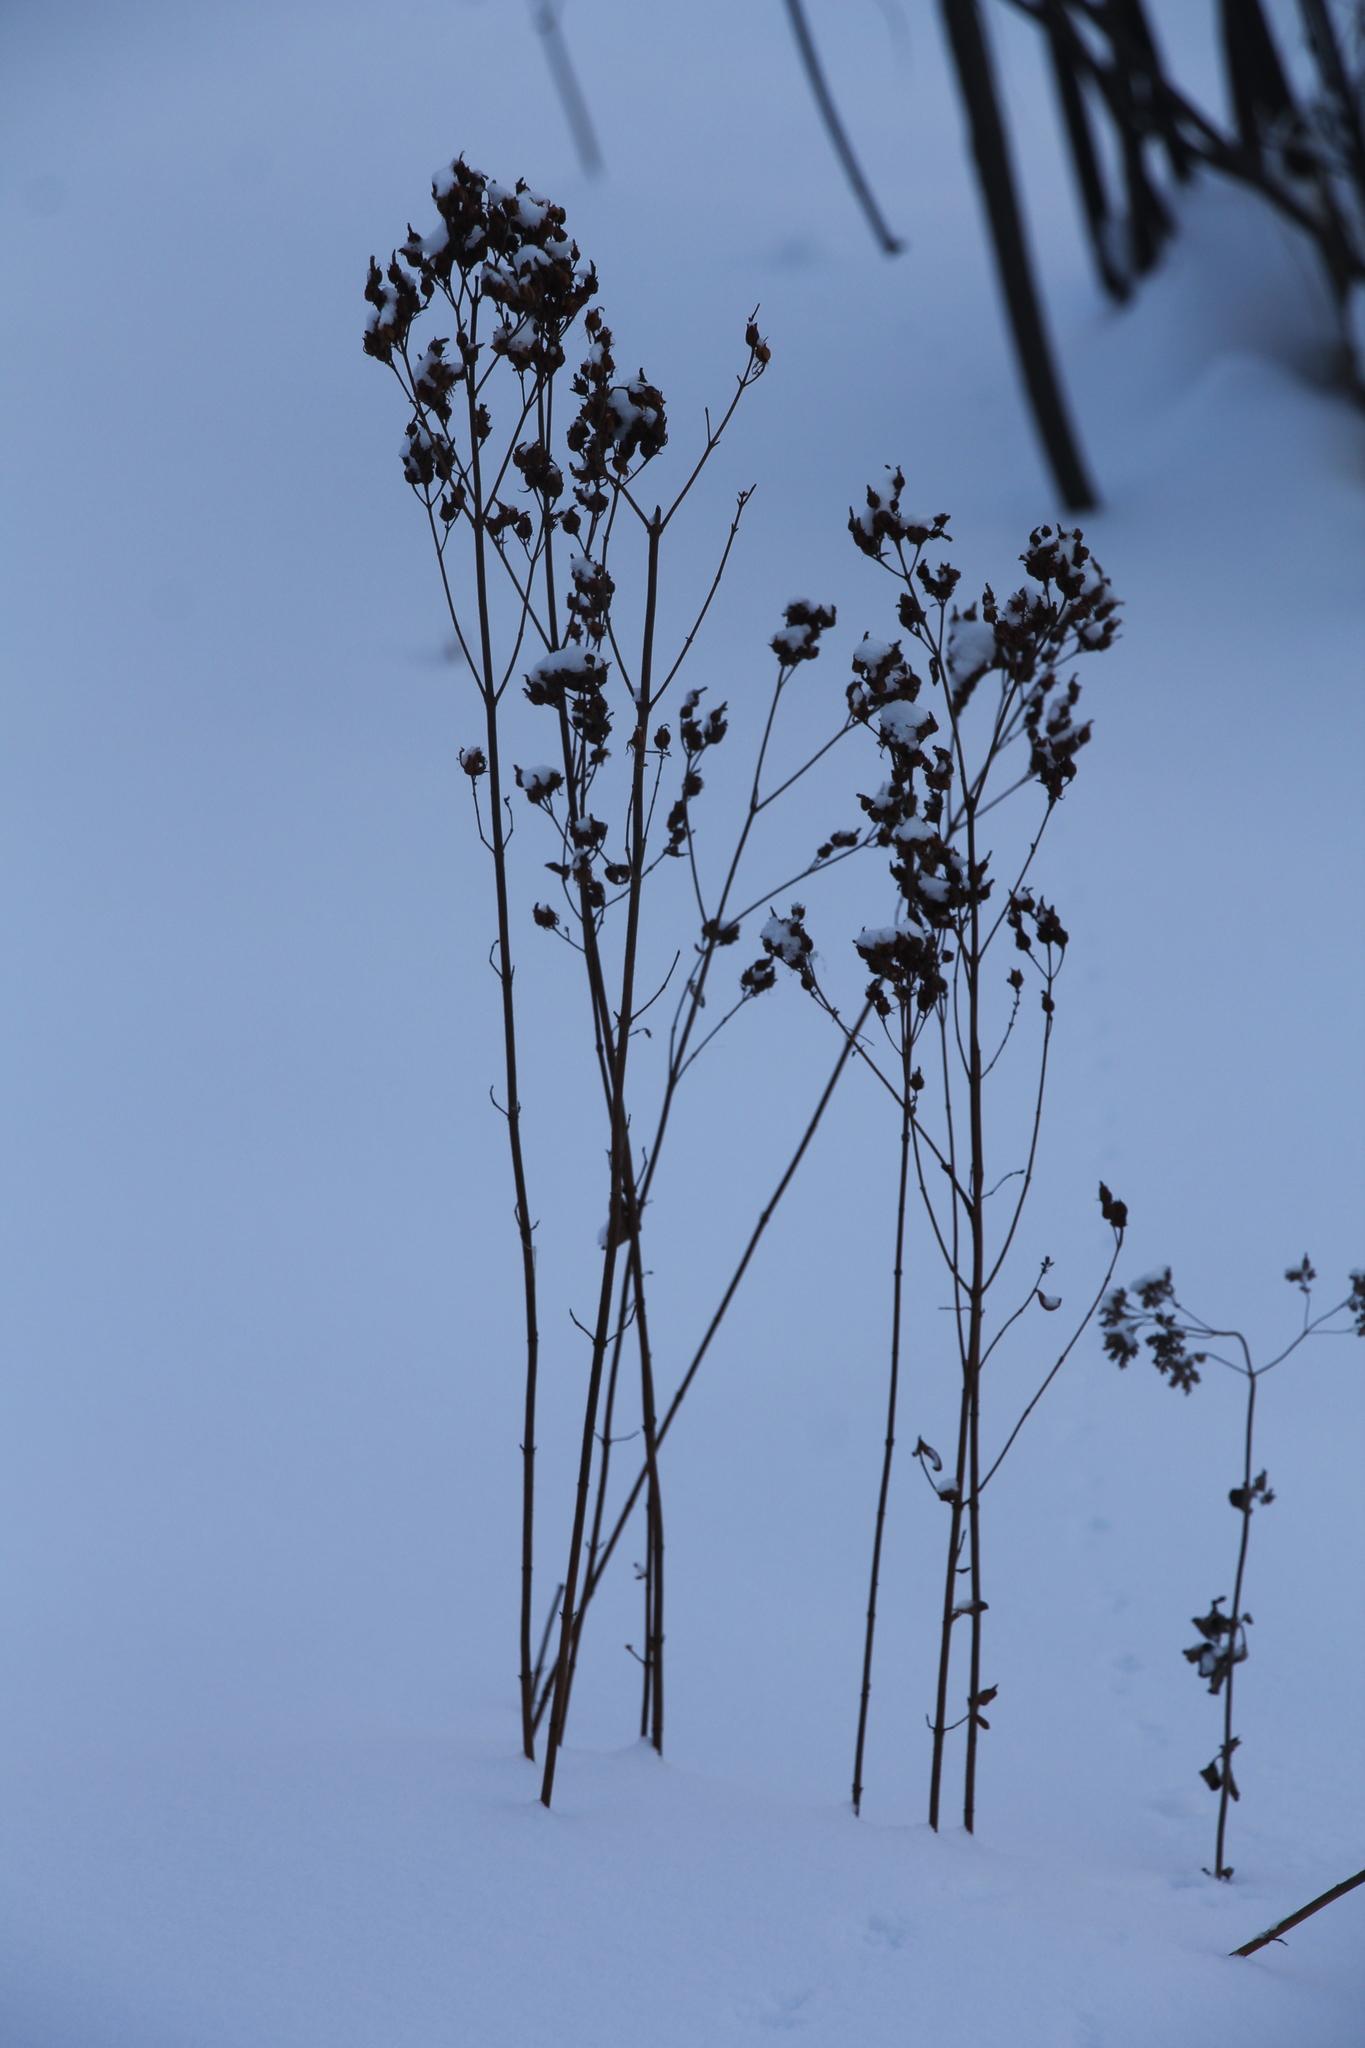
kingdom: Plantae
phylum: Tracheophyta
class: Magnoliopsida
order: Lamiales
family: Lamiaceae
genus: Origanum
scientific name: Origanum vulgare
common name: Wild marjoram
